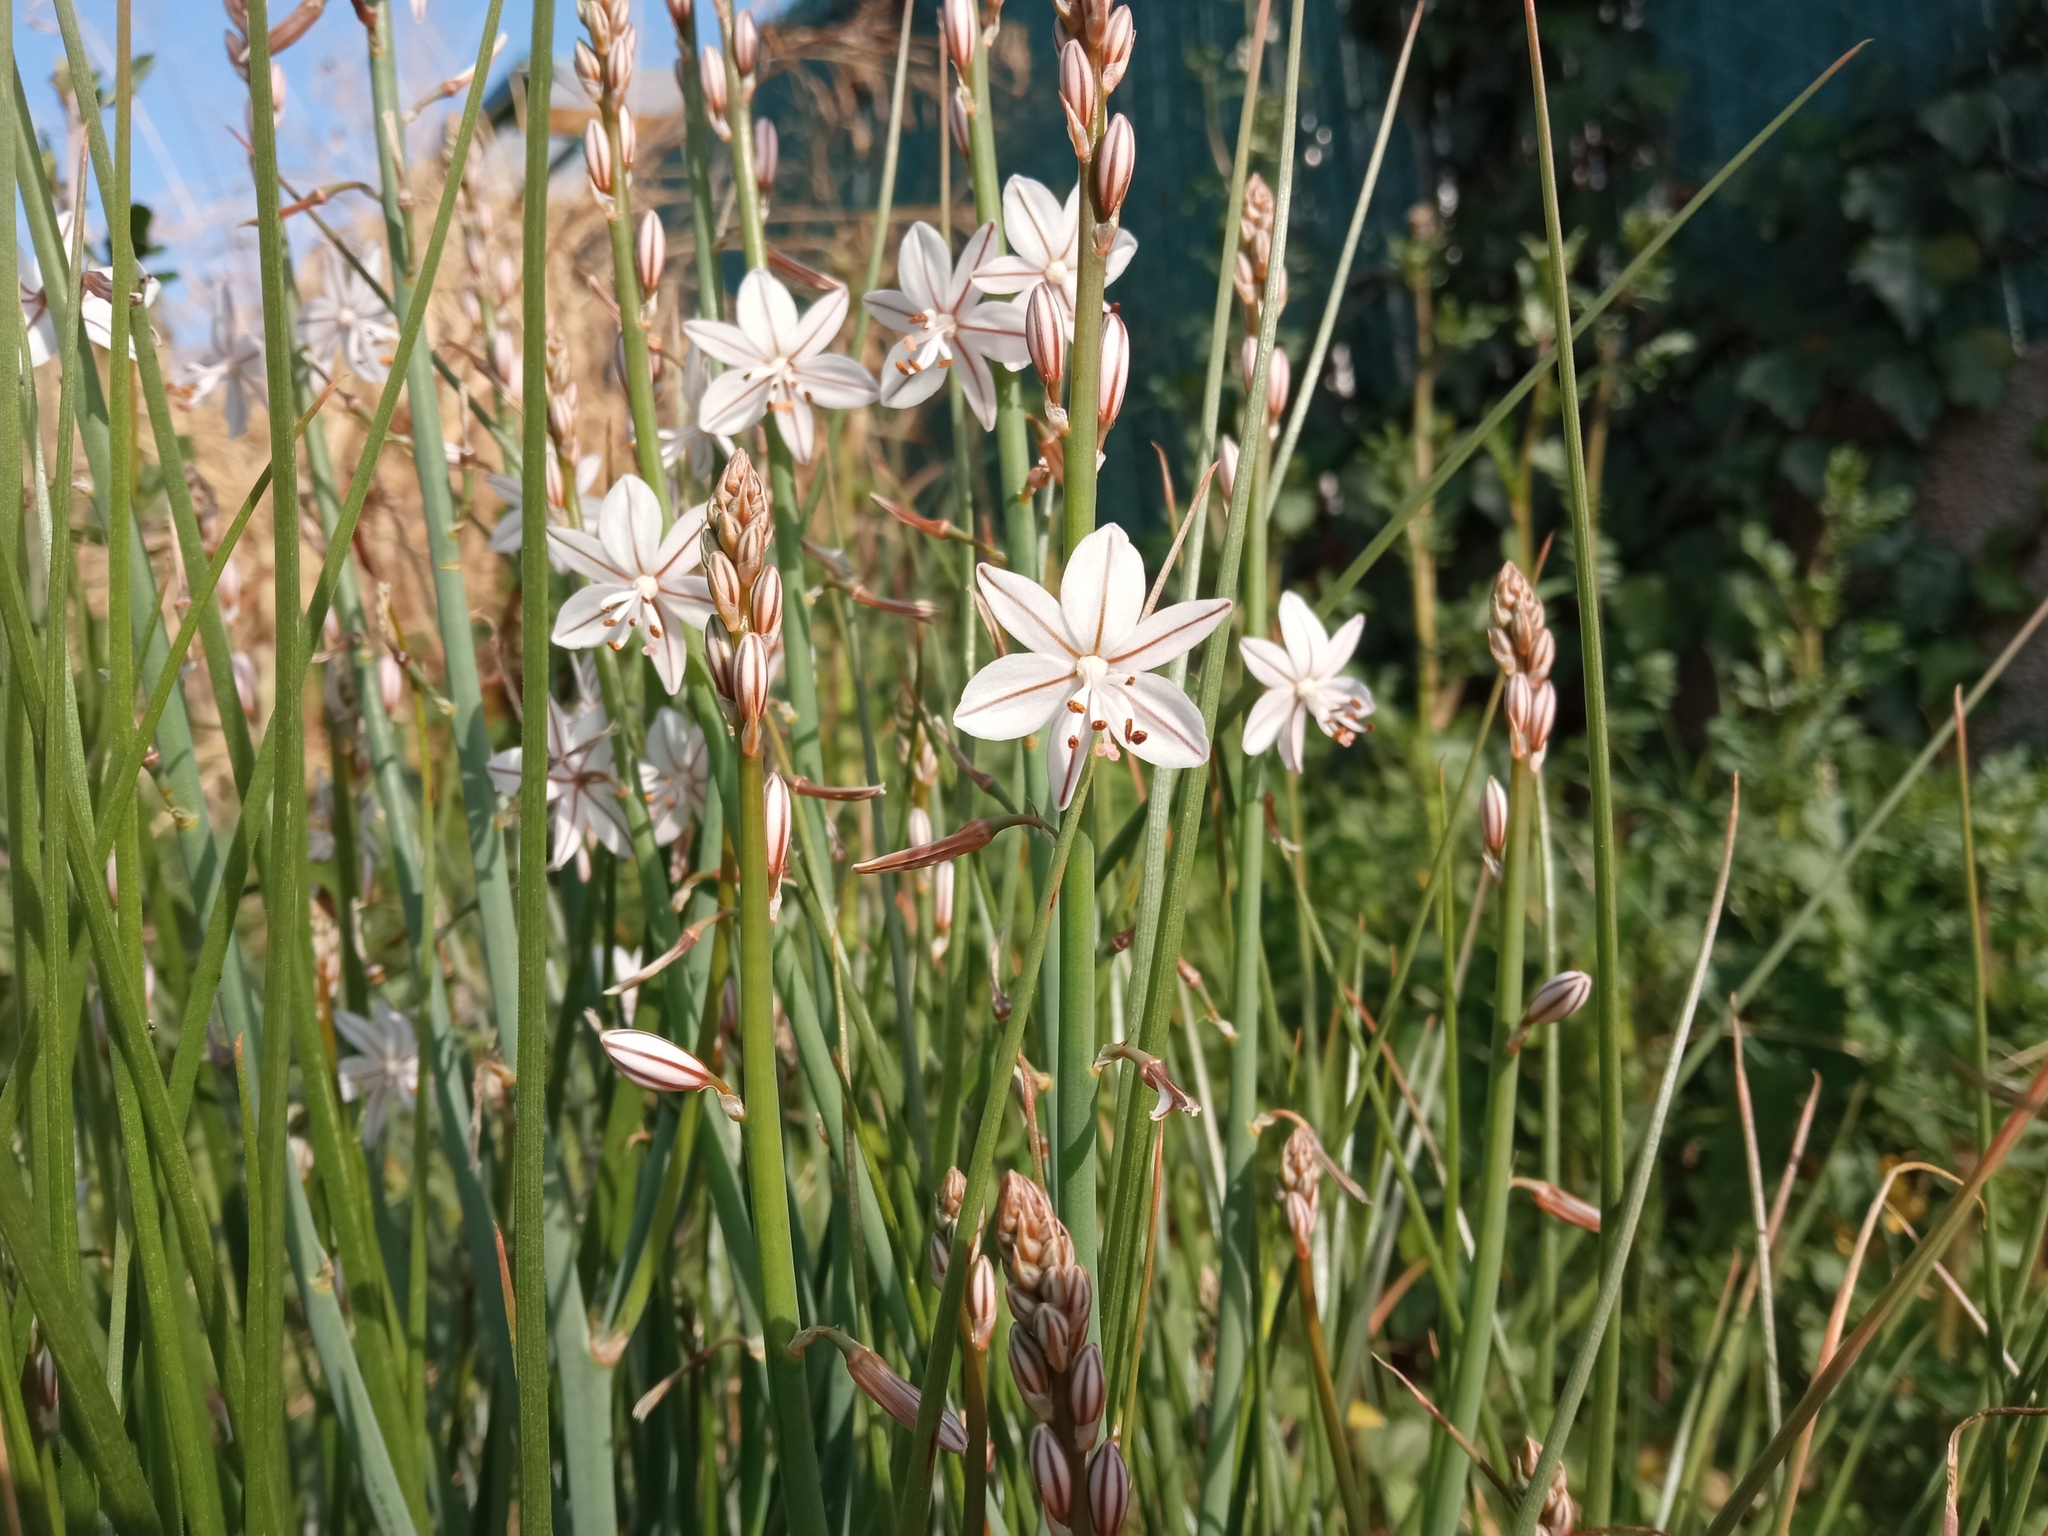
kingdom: Plantae
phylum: Tracheophyta
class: Liliopsida
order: Asparagales
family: Asphodelaceae
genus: Asphodelus
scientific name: Asphodelus fistulosus
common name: Onionweed
